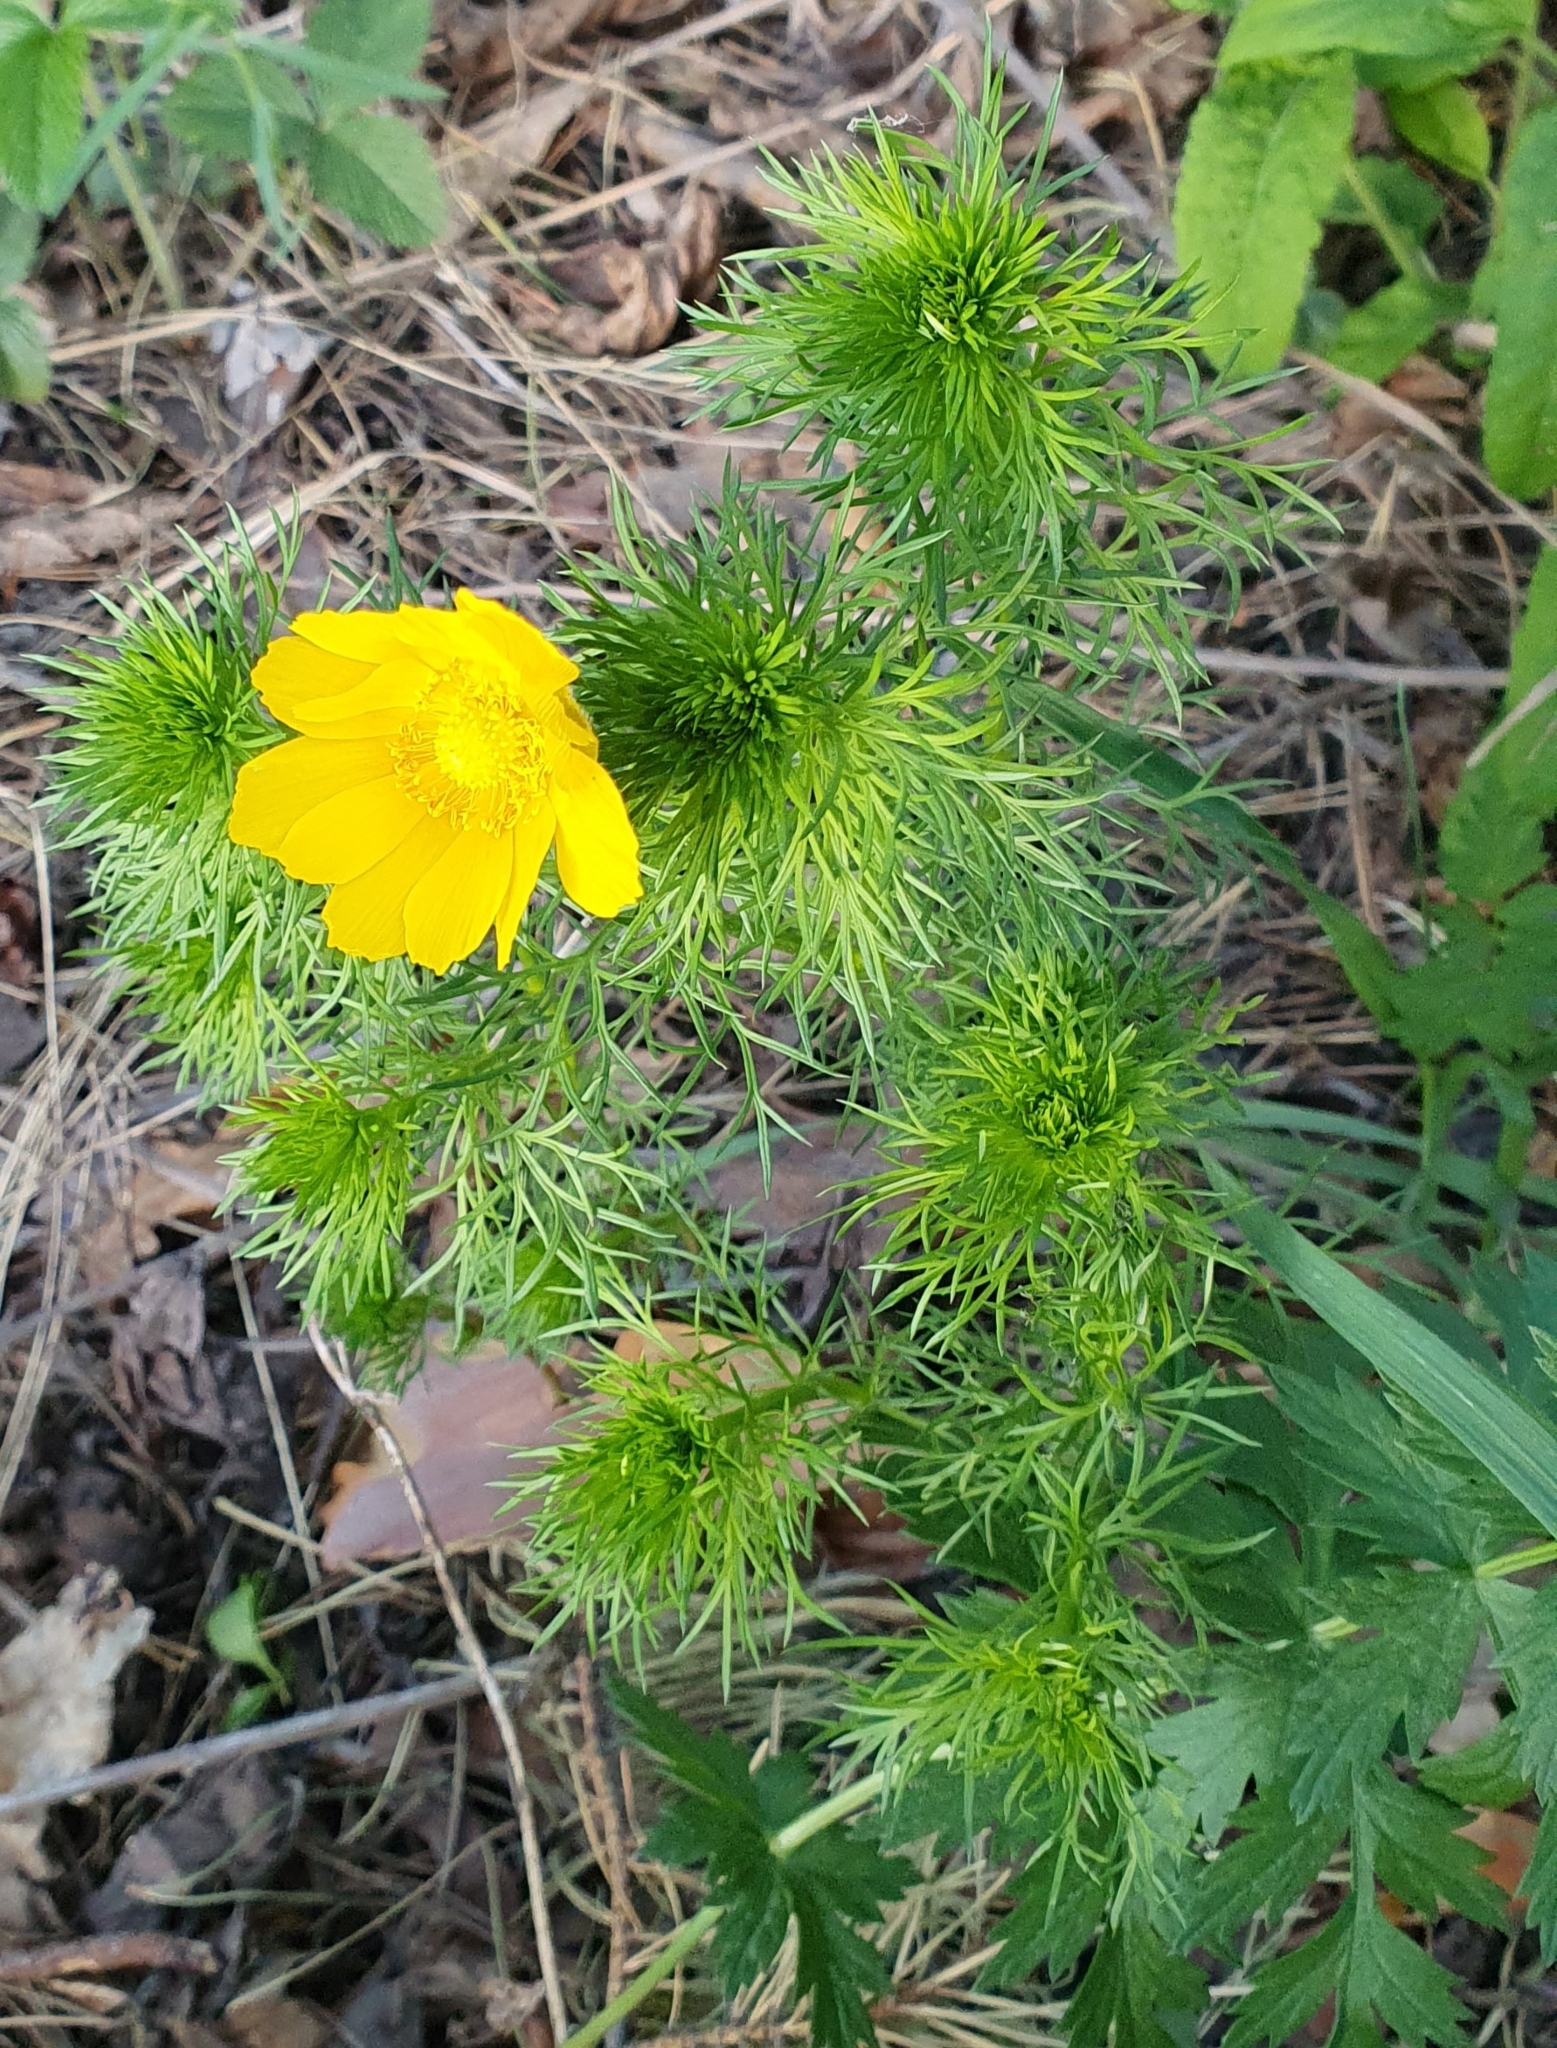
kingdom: Plantae
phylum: Tracheophyta
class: Magnoliopsida
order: Ranunculales
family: Ranunculaceae
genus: Adonis
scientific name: Adonis vernalis
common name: Yellow pheasants-eye
